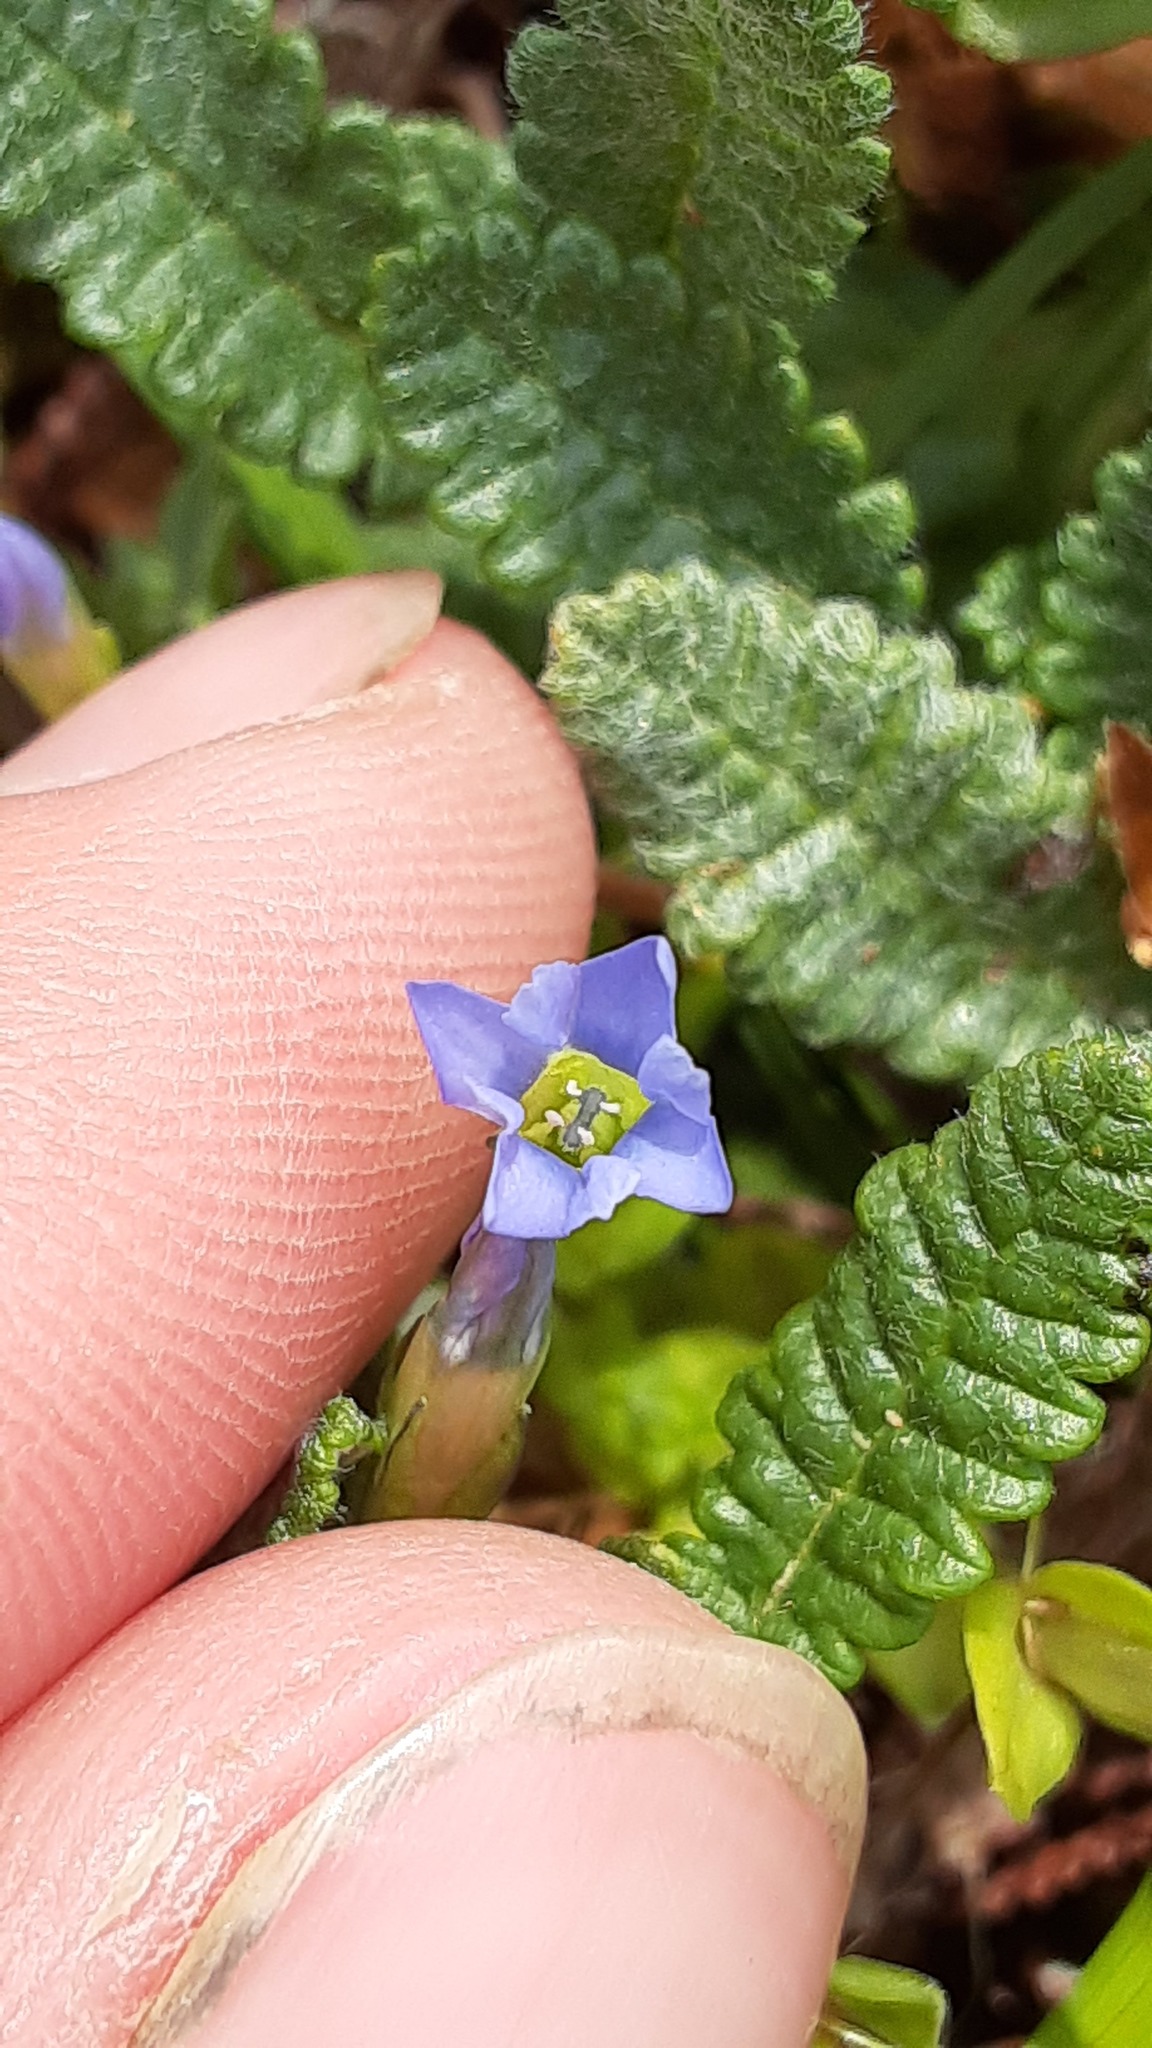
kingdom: Plantae
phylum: Tracheophyta
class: Magnoliopsida
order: Gentianales
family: Gentianaceae
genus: Gentiana
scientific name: Gentiana prostrata
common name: Moss gentian
